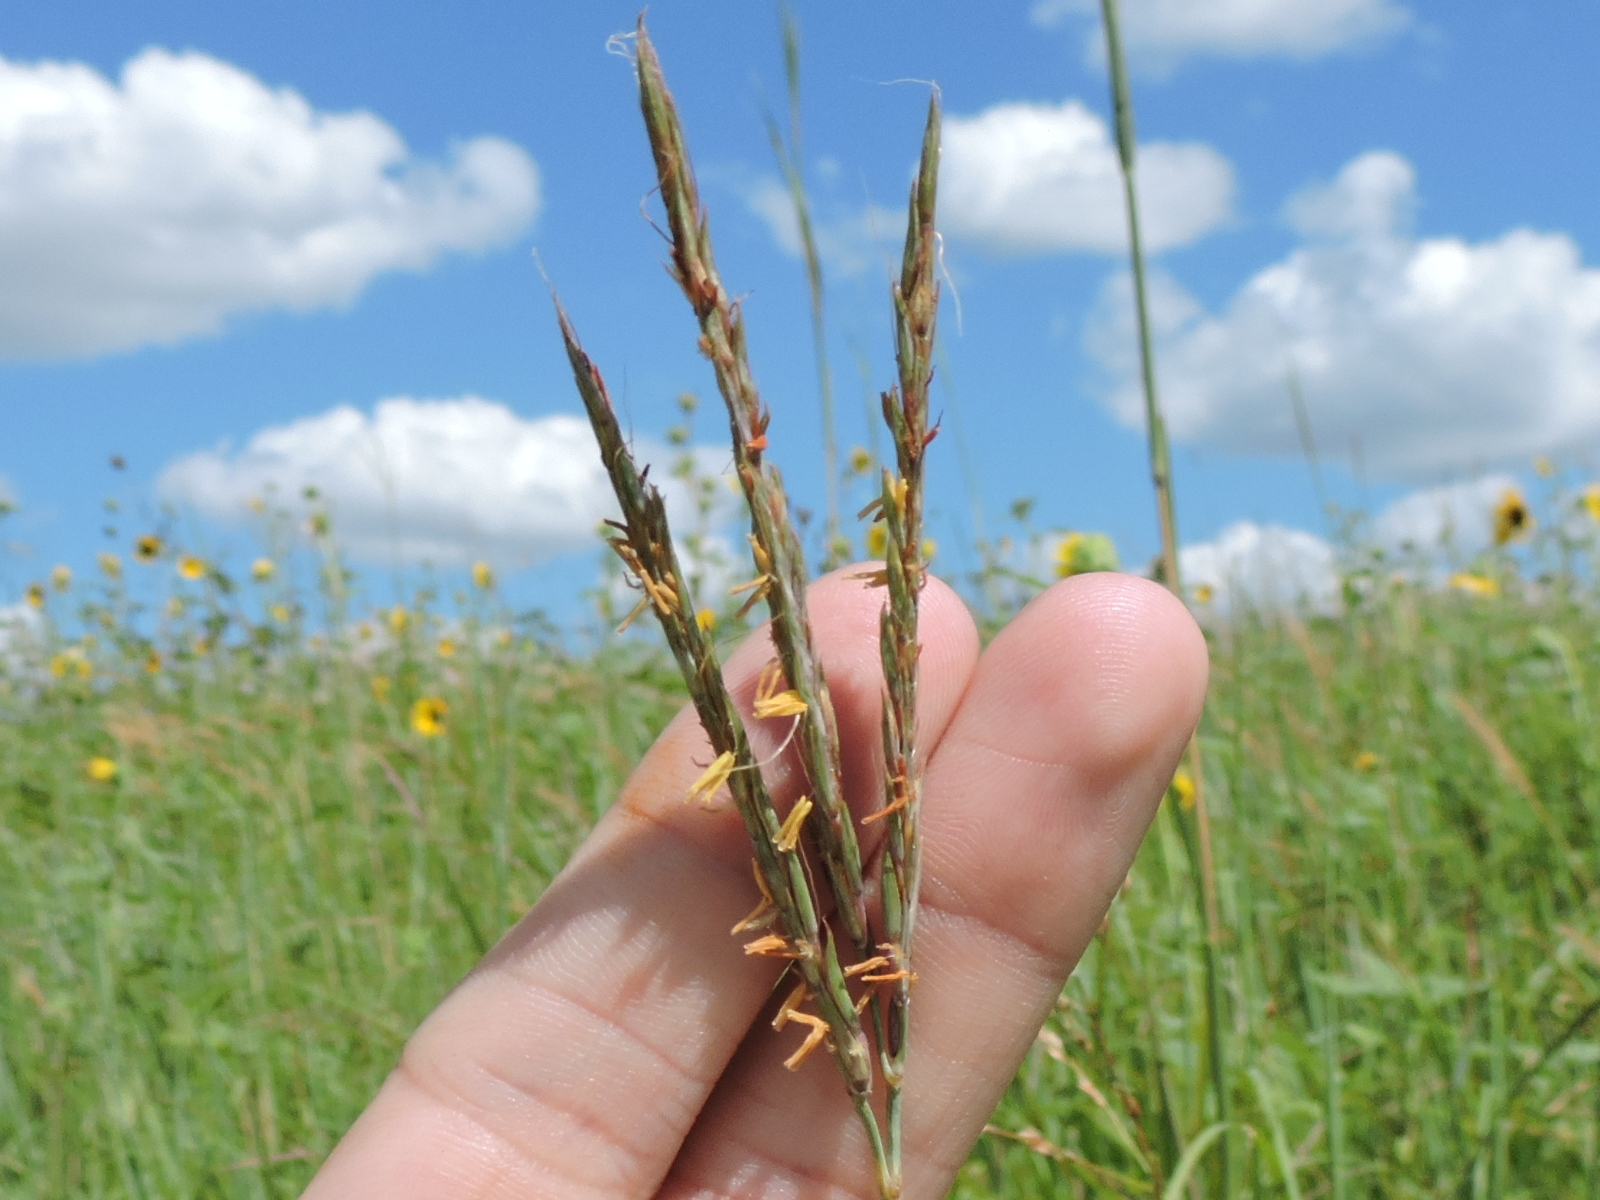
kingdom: Plantae
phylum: Tracheophyta
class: Liliopsida
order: Poales
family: Poaceae
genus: Andropogon
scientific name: Andropogon gerardi
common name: Big bluestem
